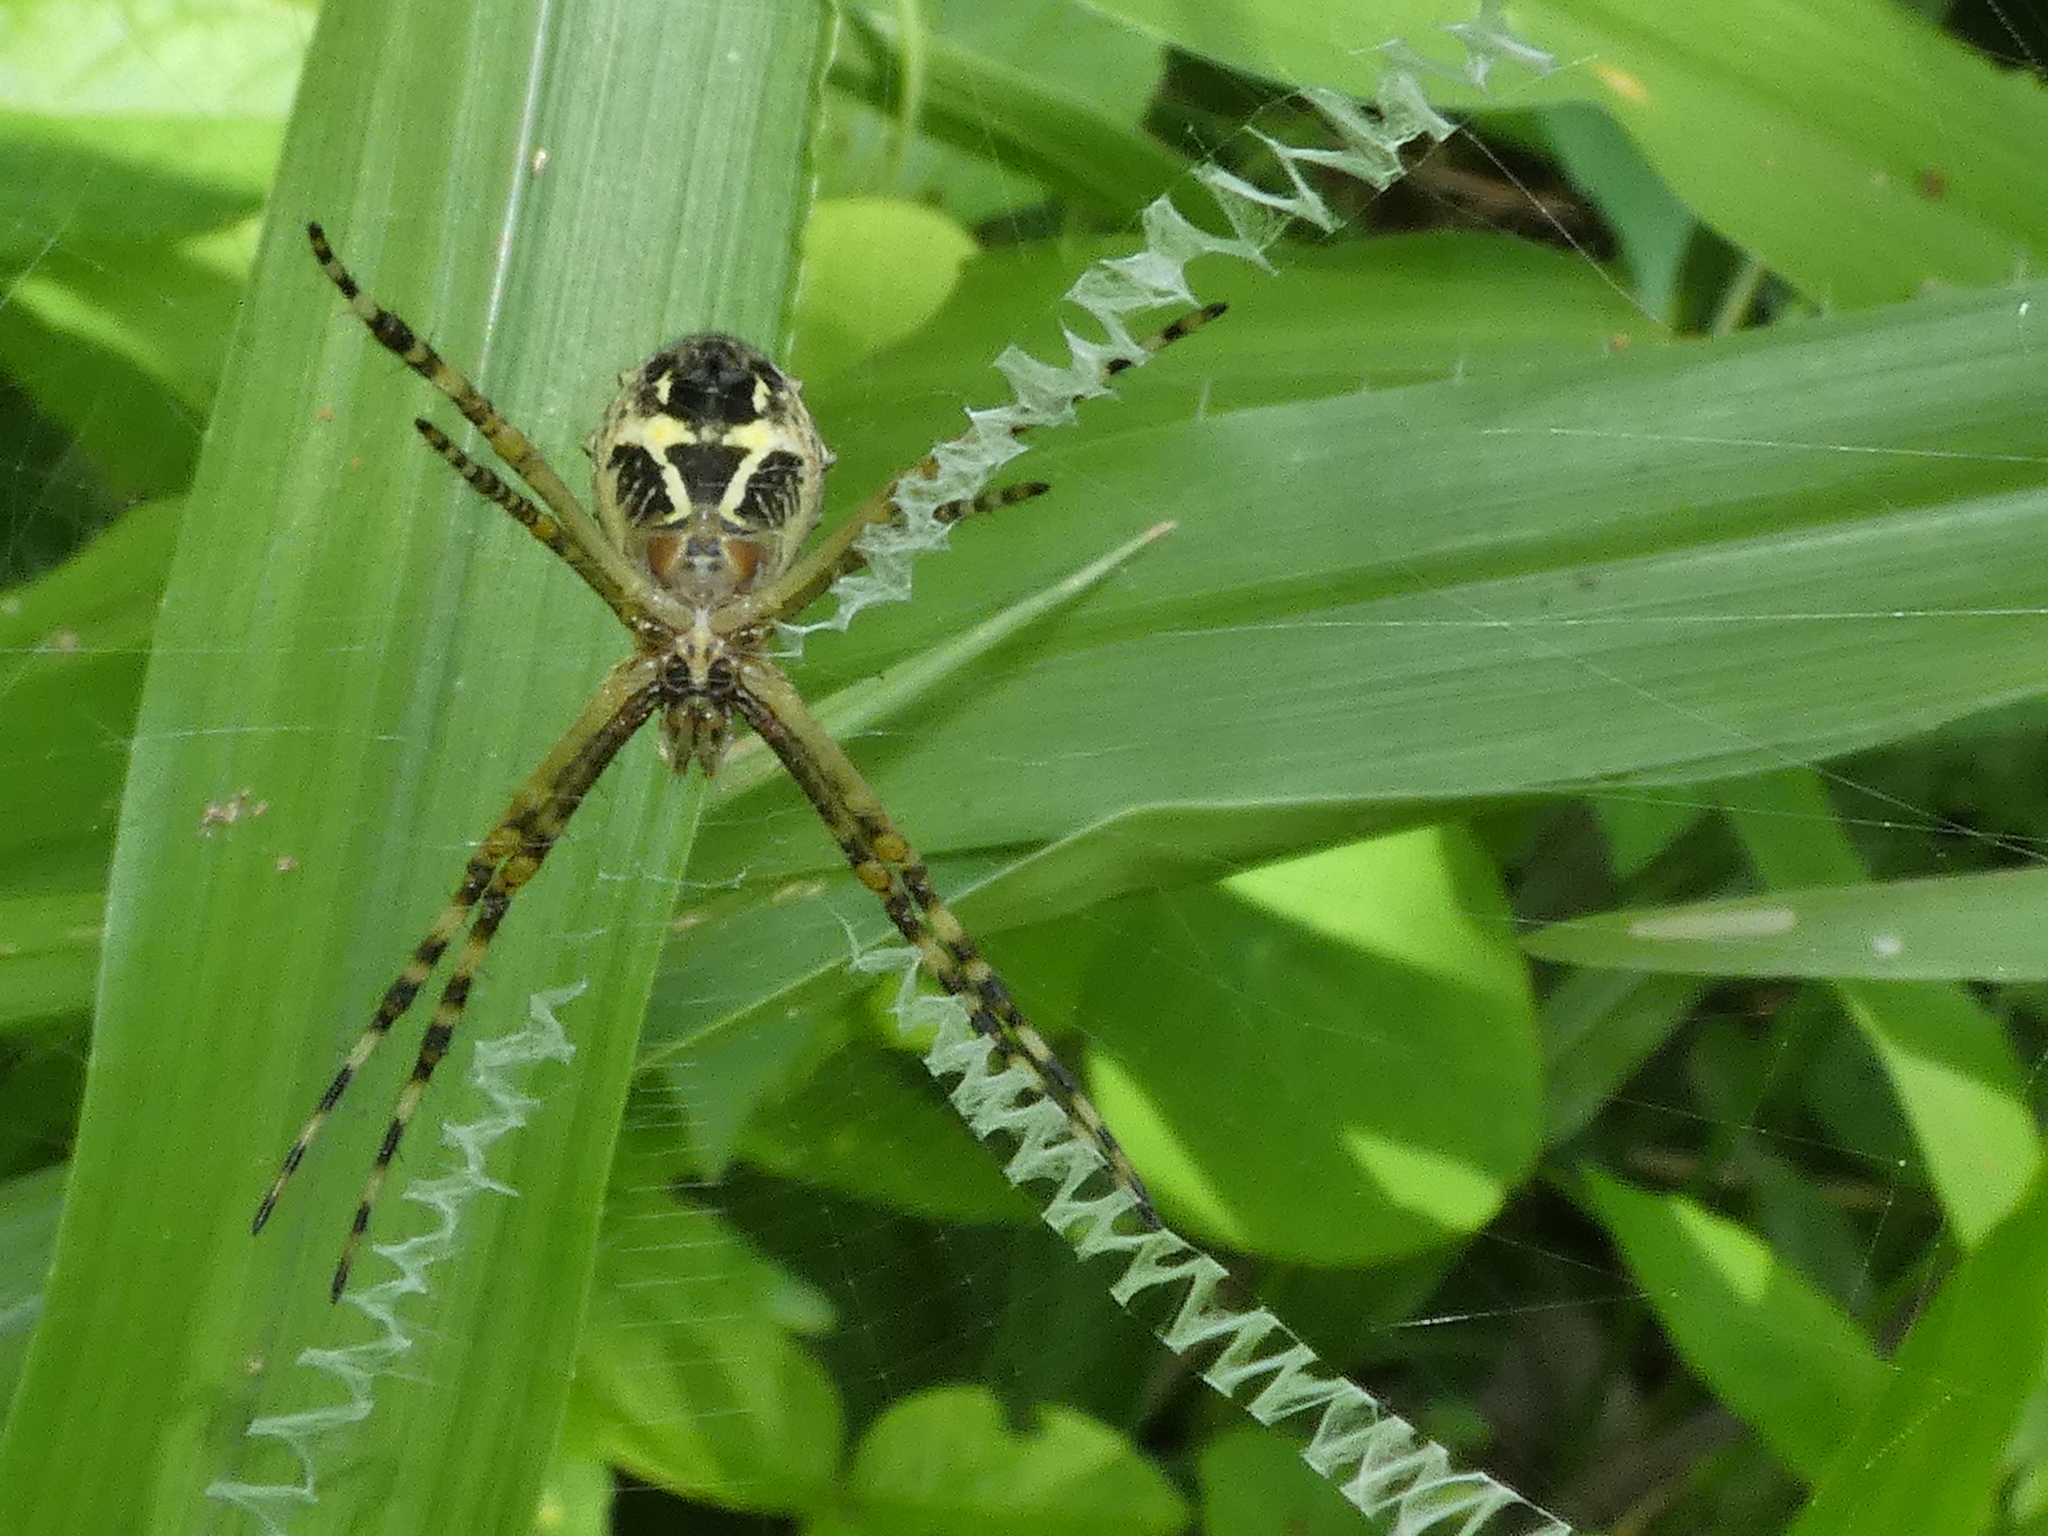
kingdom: Animalia
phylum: Arthropoda
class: Arachnida
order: Araneae
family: Araneidae
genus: Argiope
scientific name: Argiope argentata
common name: Orb weavers
